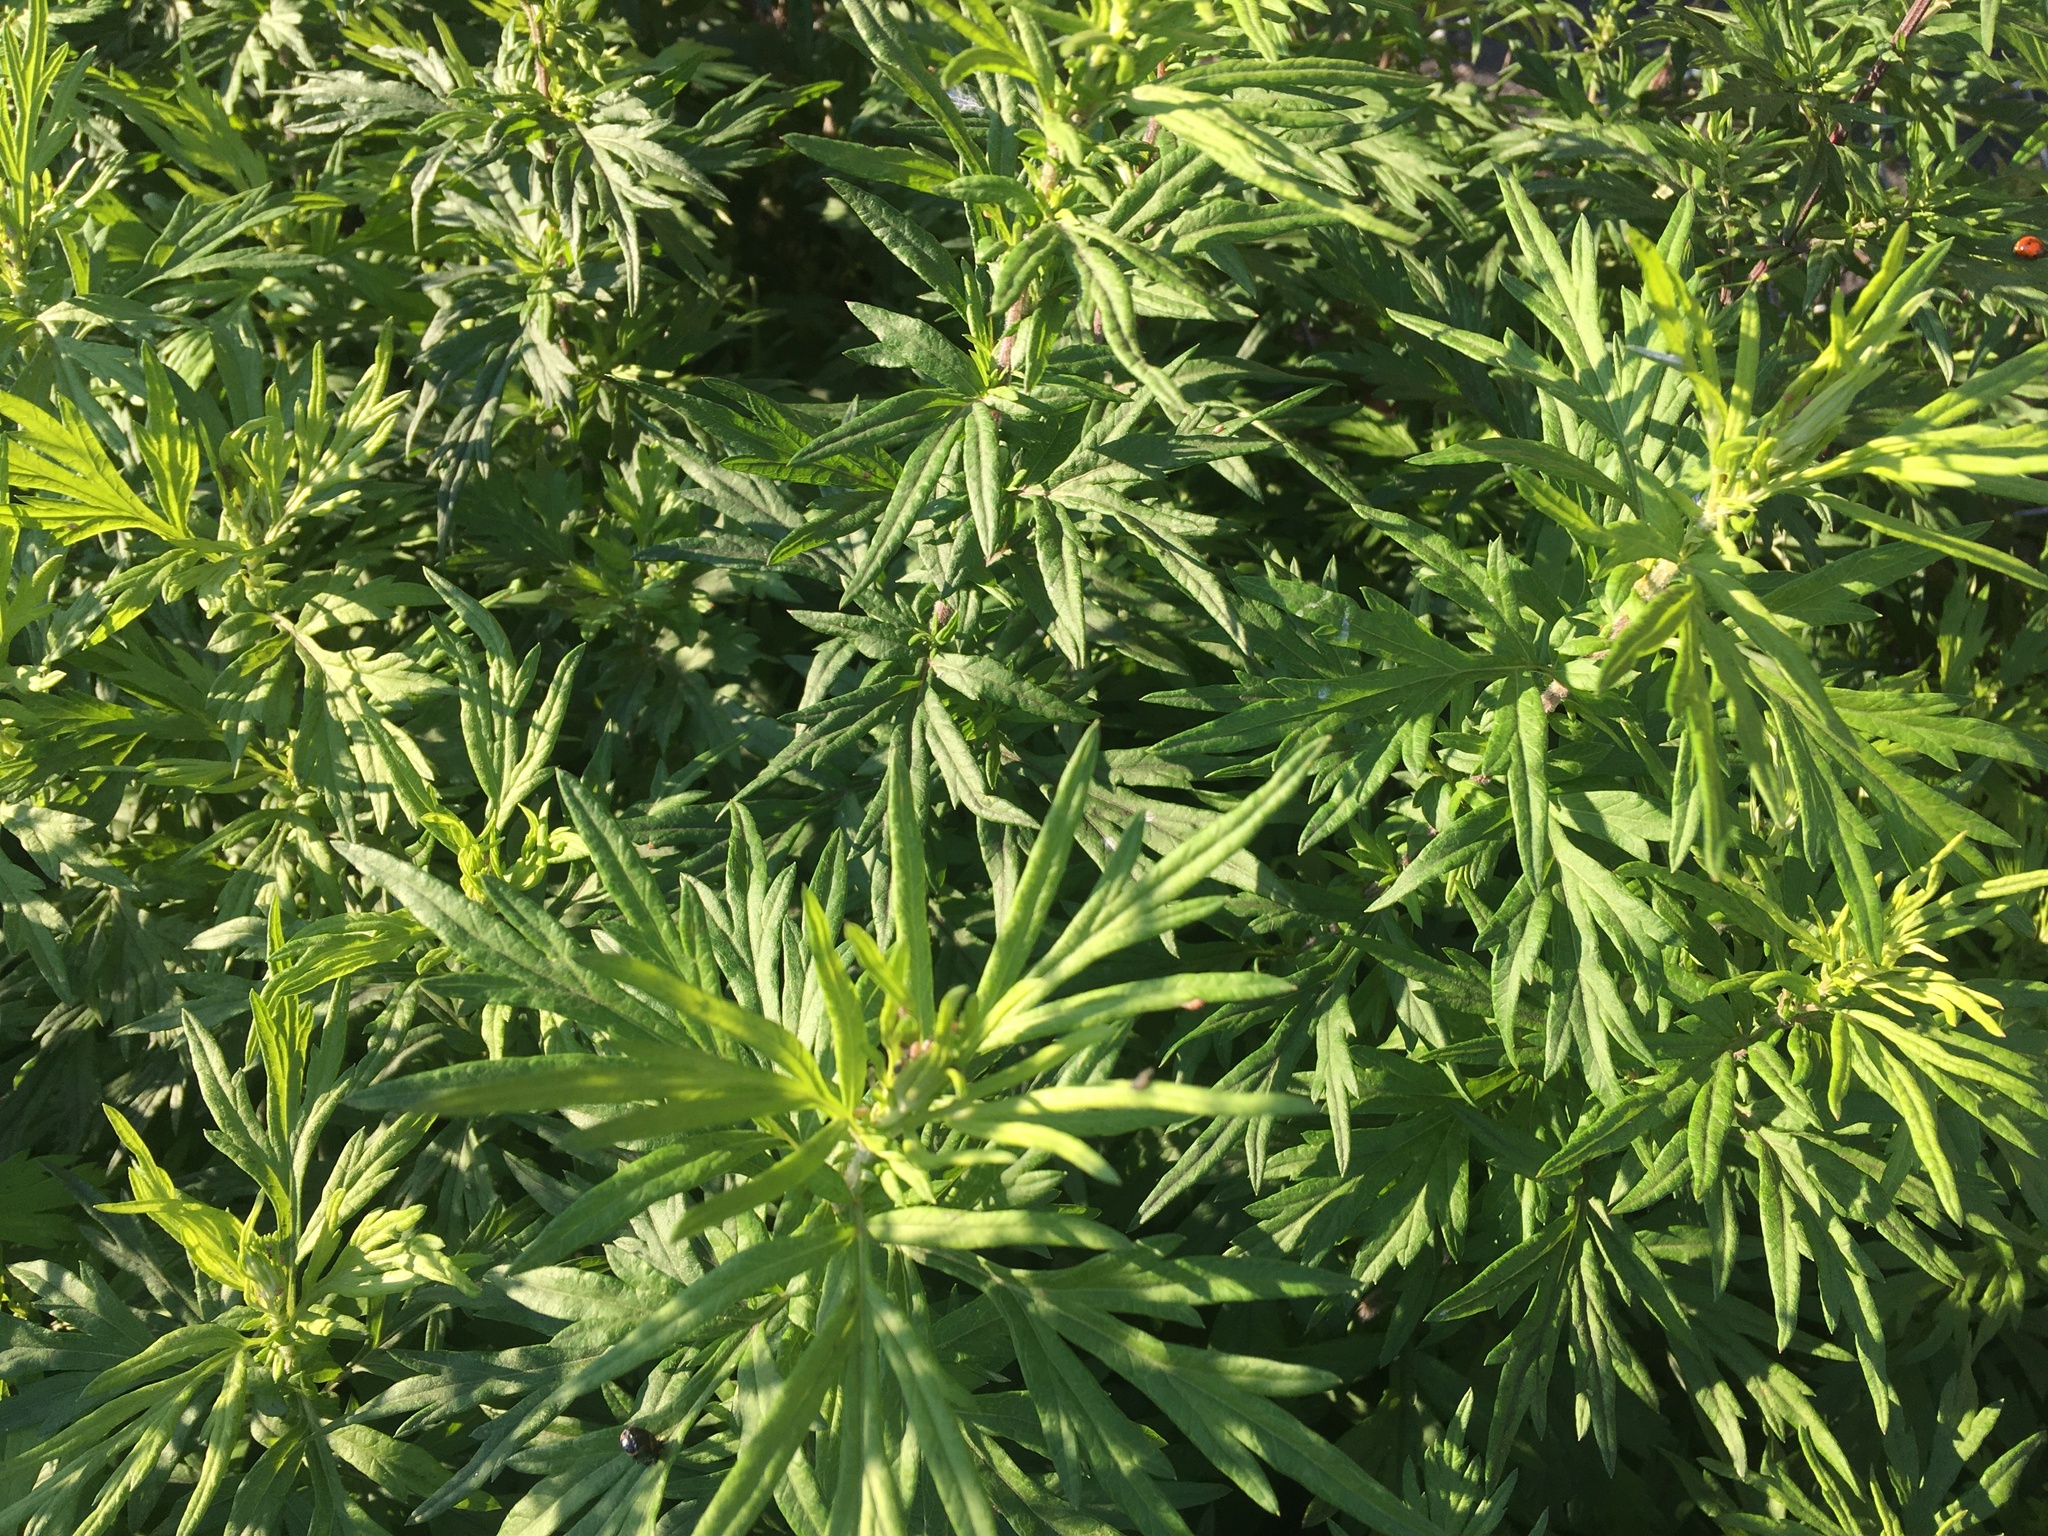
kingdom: Plantae
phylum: Tracheophyta
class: Magnoliopsida
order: Asterales
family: Asteraceae
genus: Artemisia
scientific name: Artemisia vulgaris
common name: Mugwort
